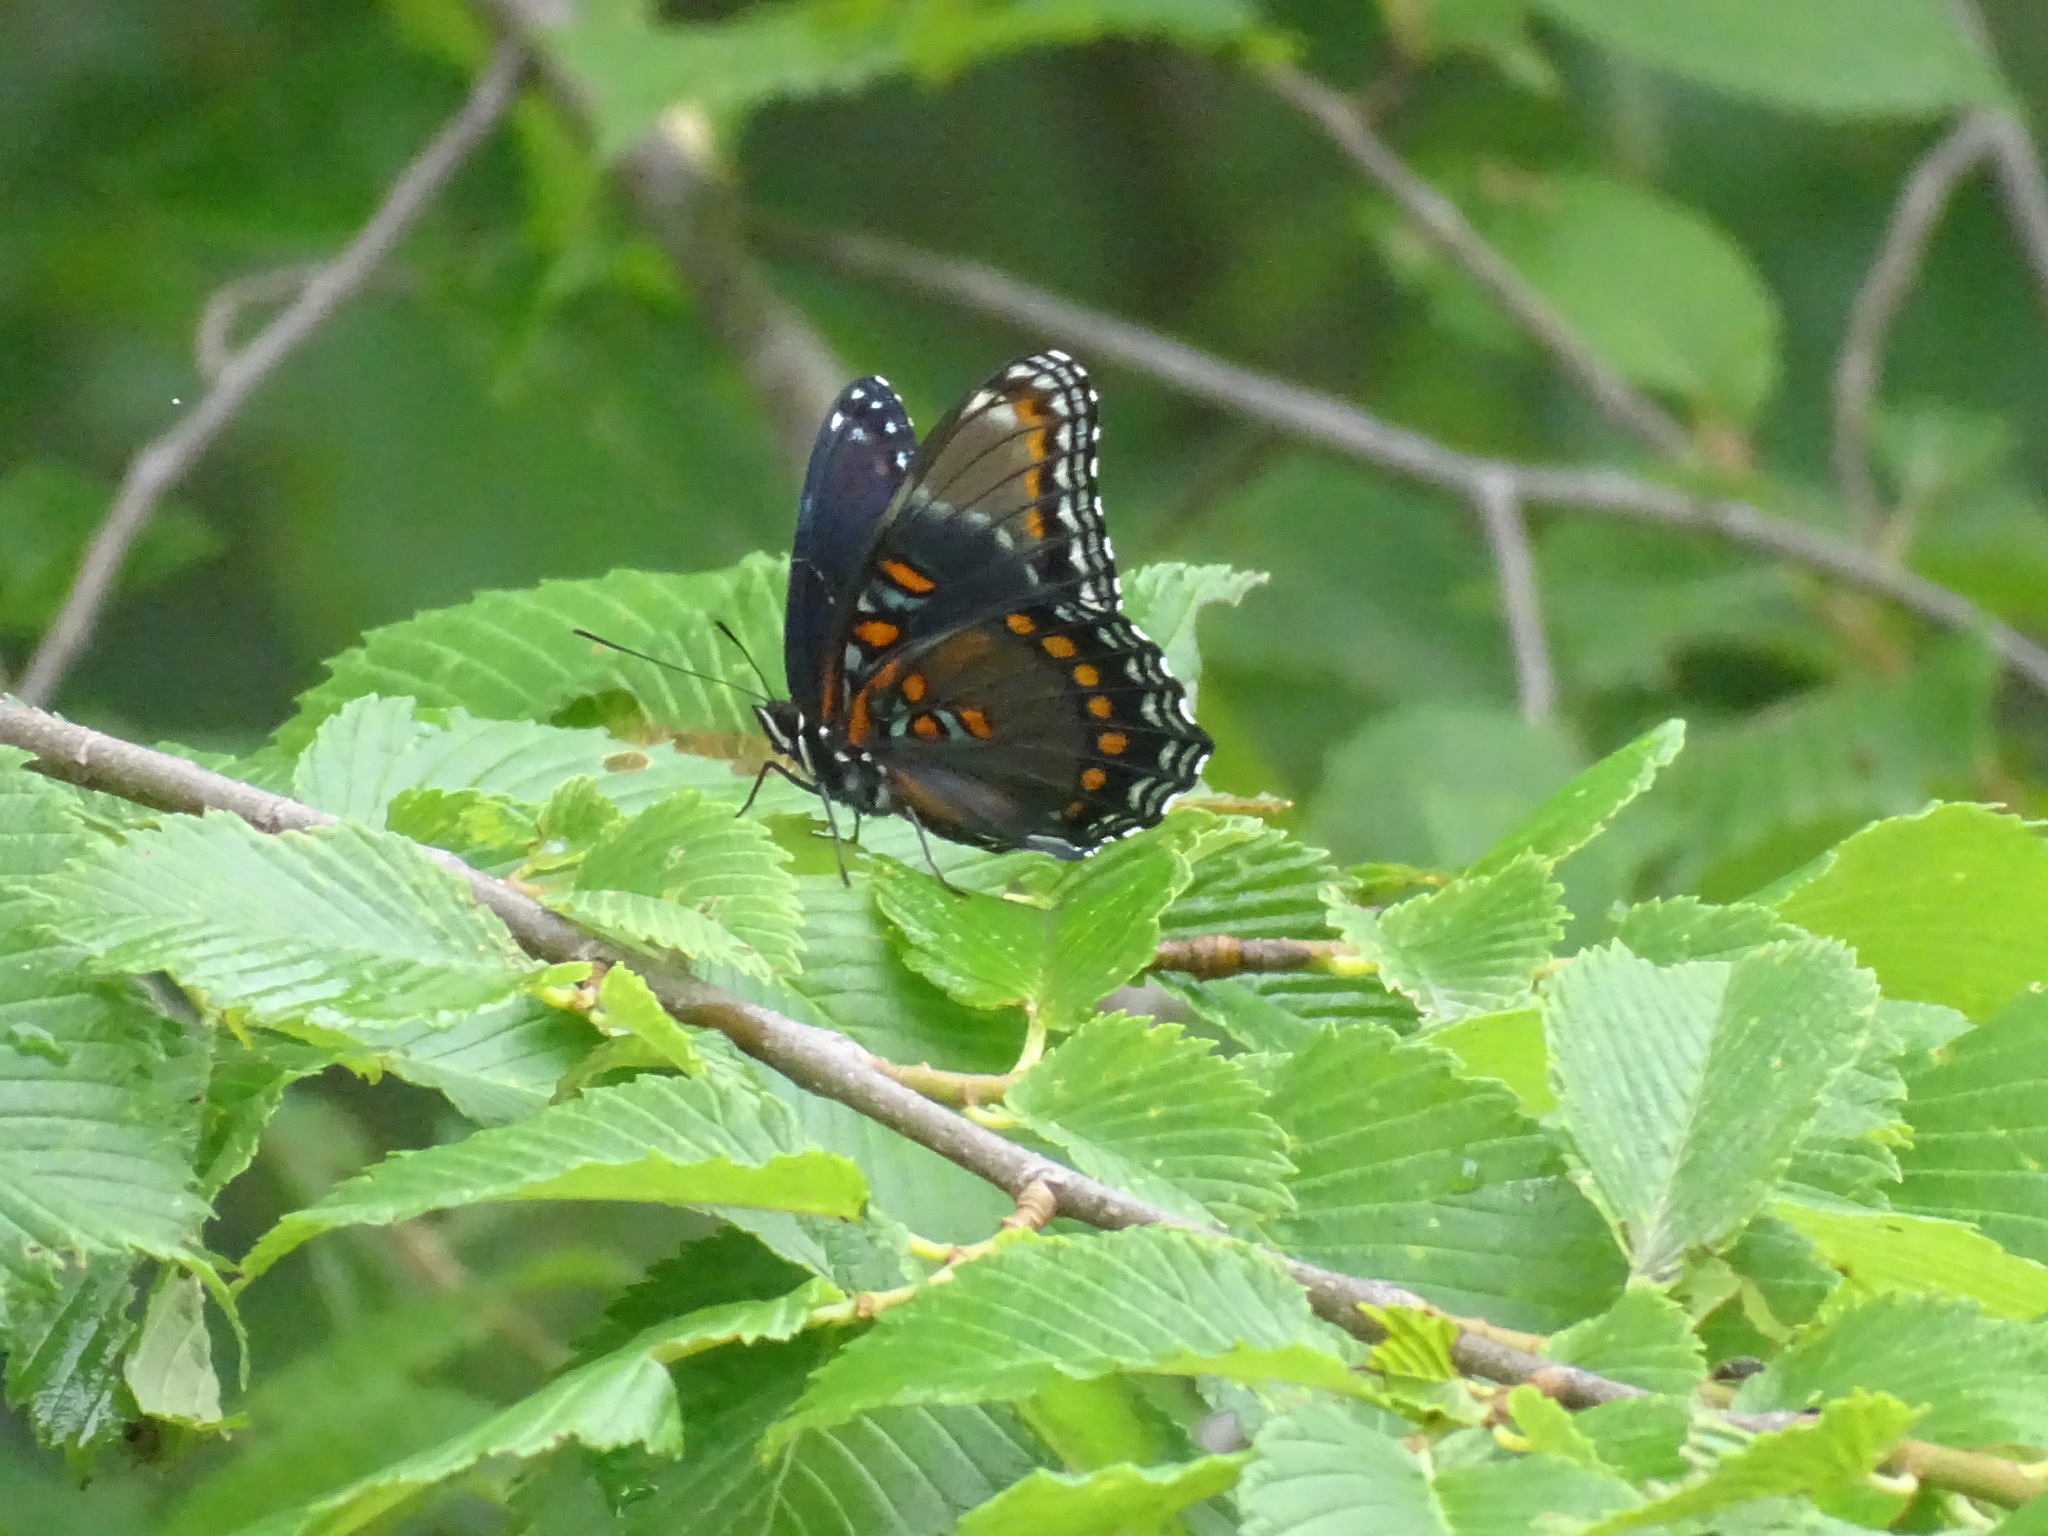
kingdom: Animalia
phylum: Arthropoda
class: Insecta
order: Lepidoptera
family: Nymphalidae
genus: Limenitis
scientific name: Limenitis
